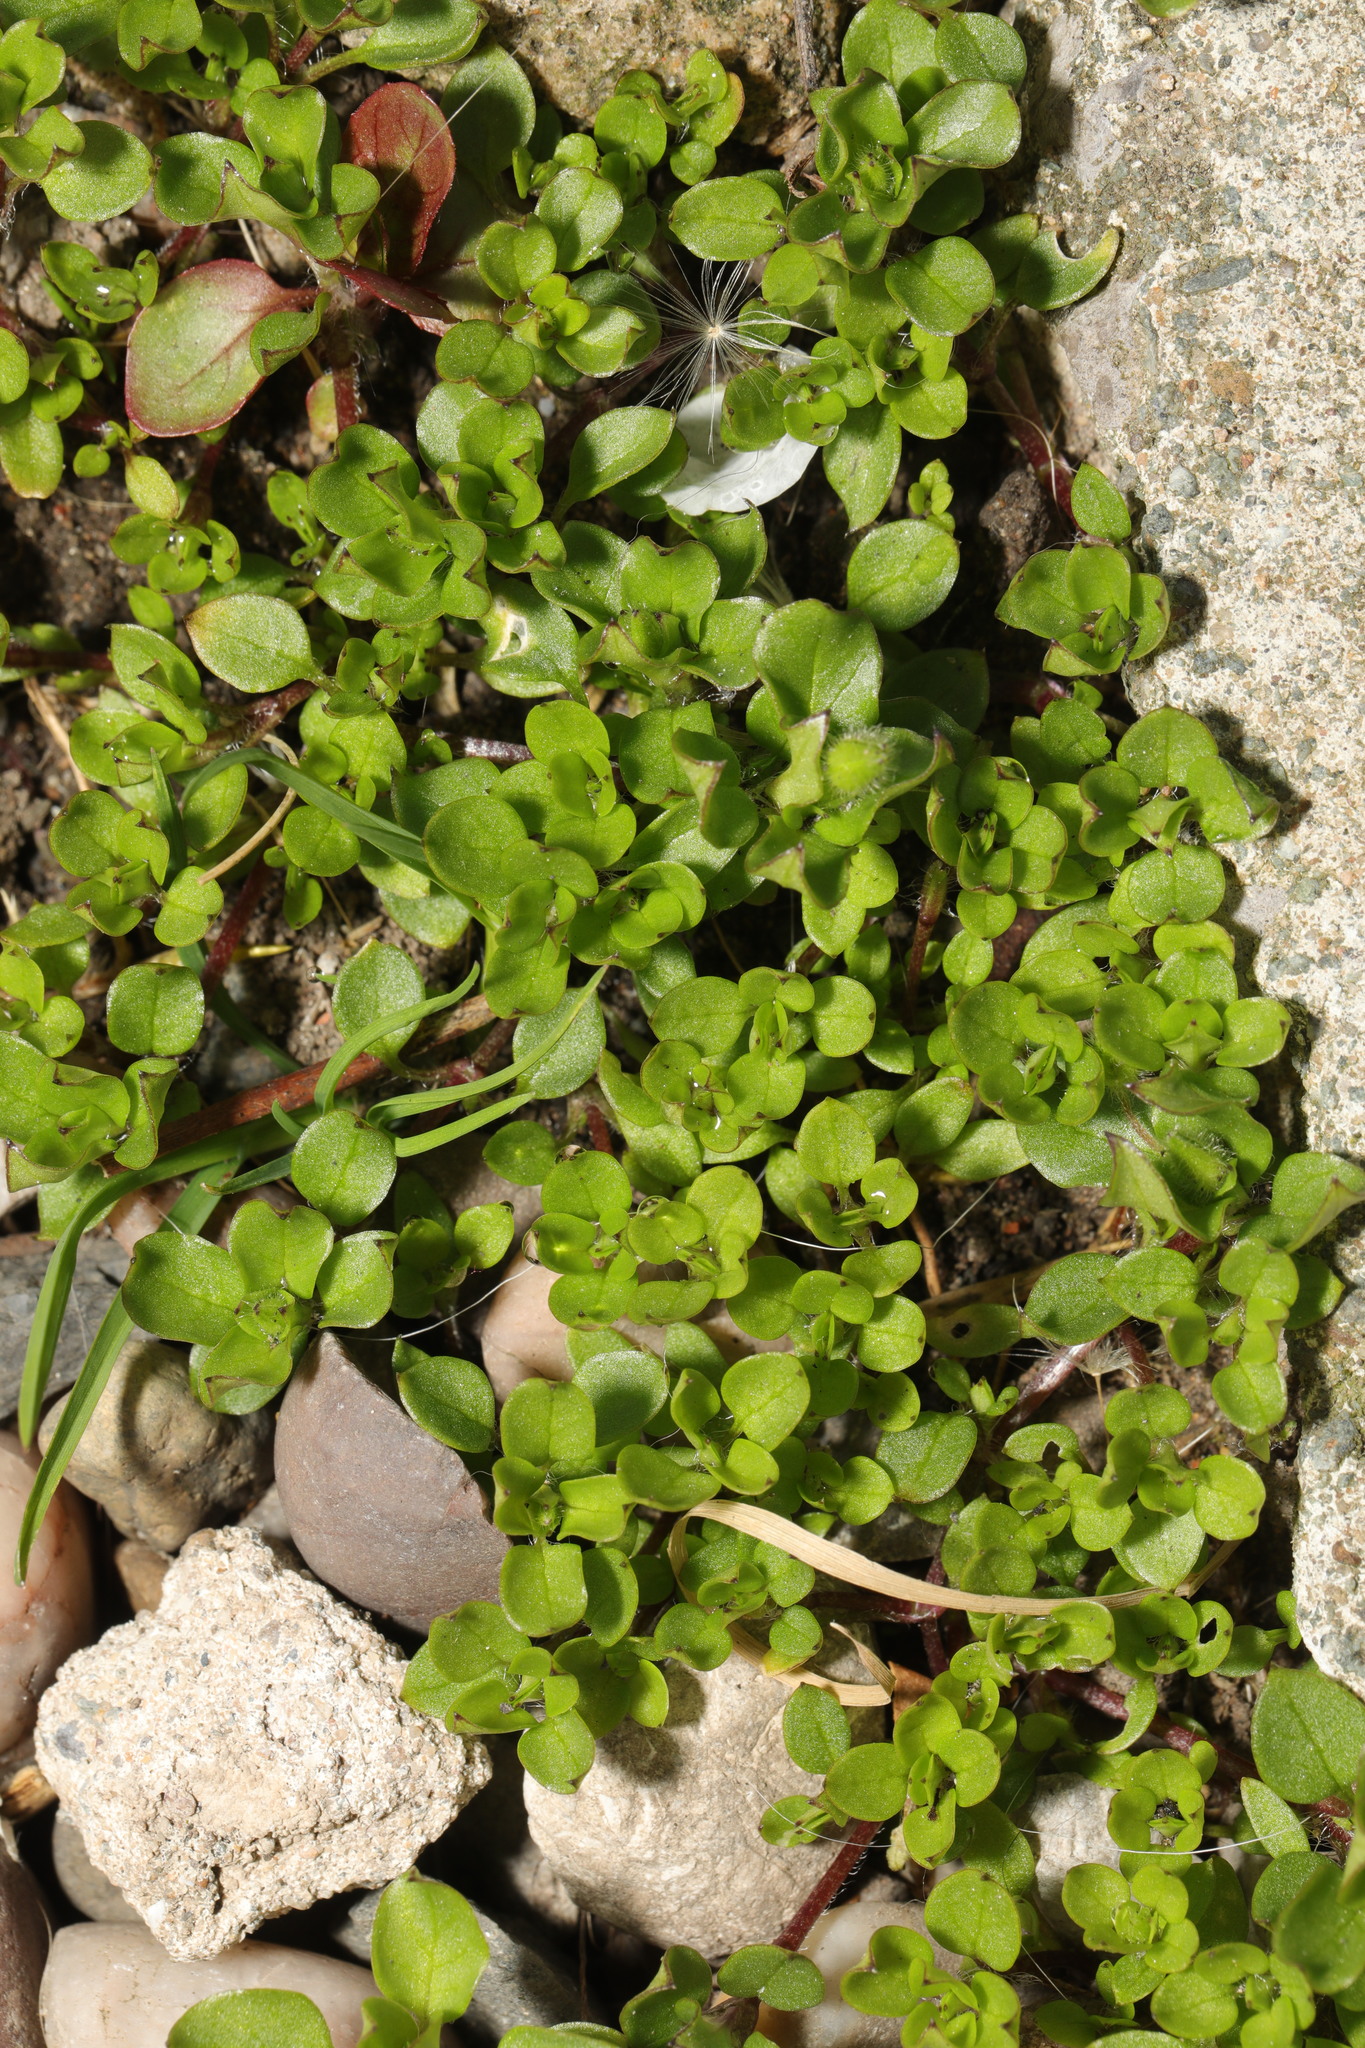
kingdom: Plantae
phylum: Tracheophyta
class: Magnoliopsida
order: Caryophyllales
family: Caryophyllaceae
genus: Stellaria
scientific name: Stellaria media
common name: Common chickweed
